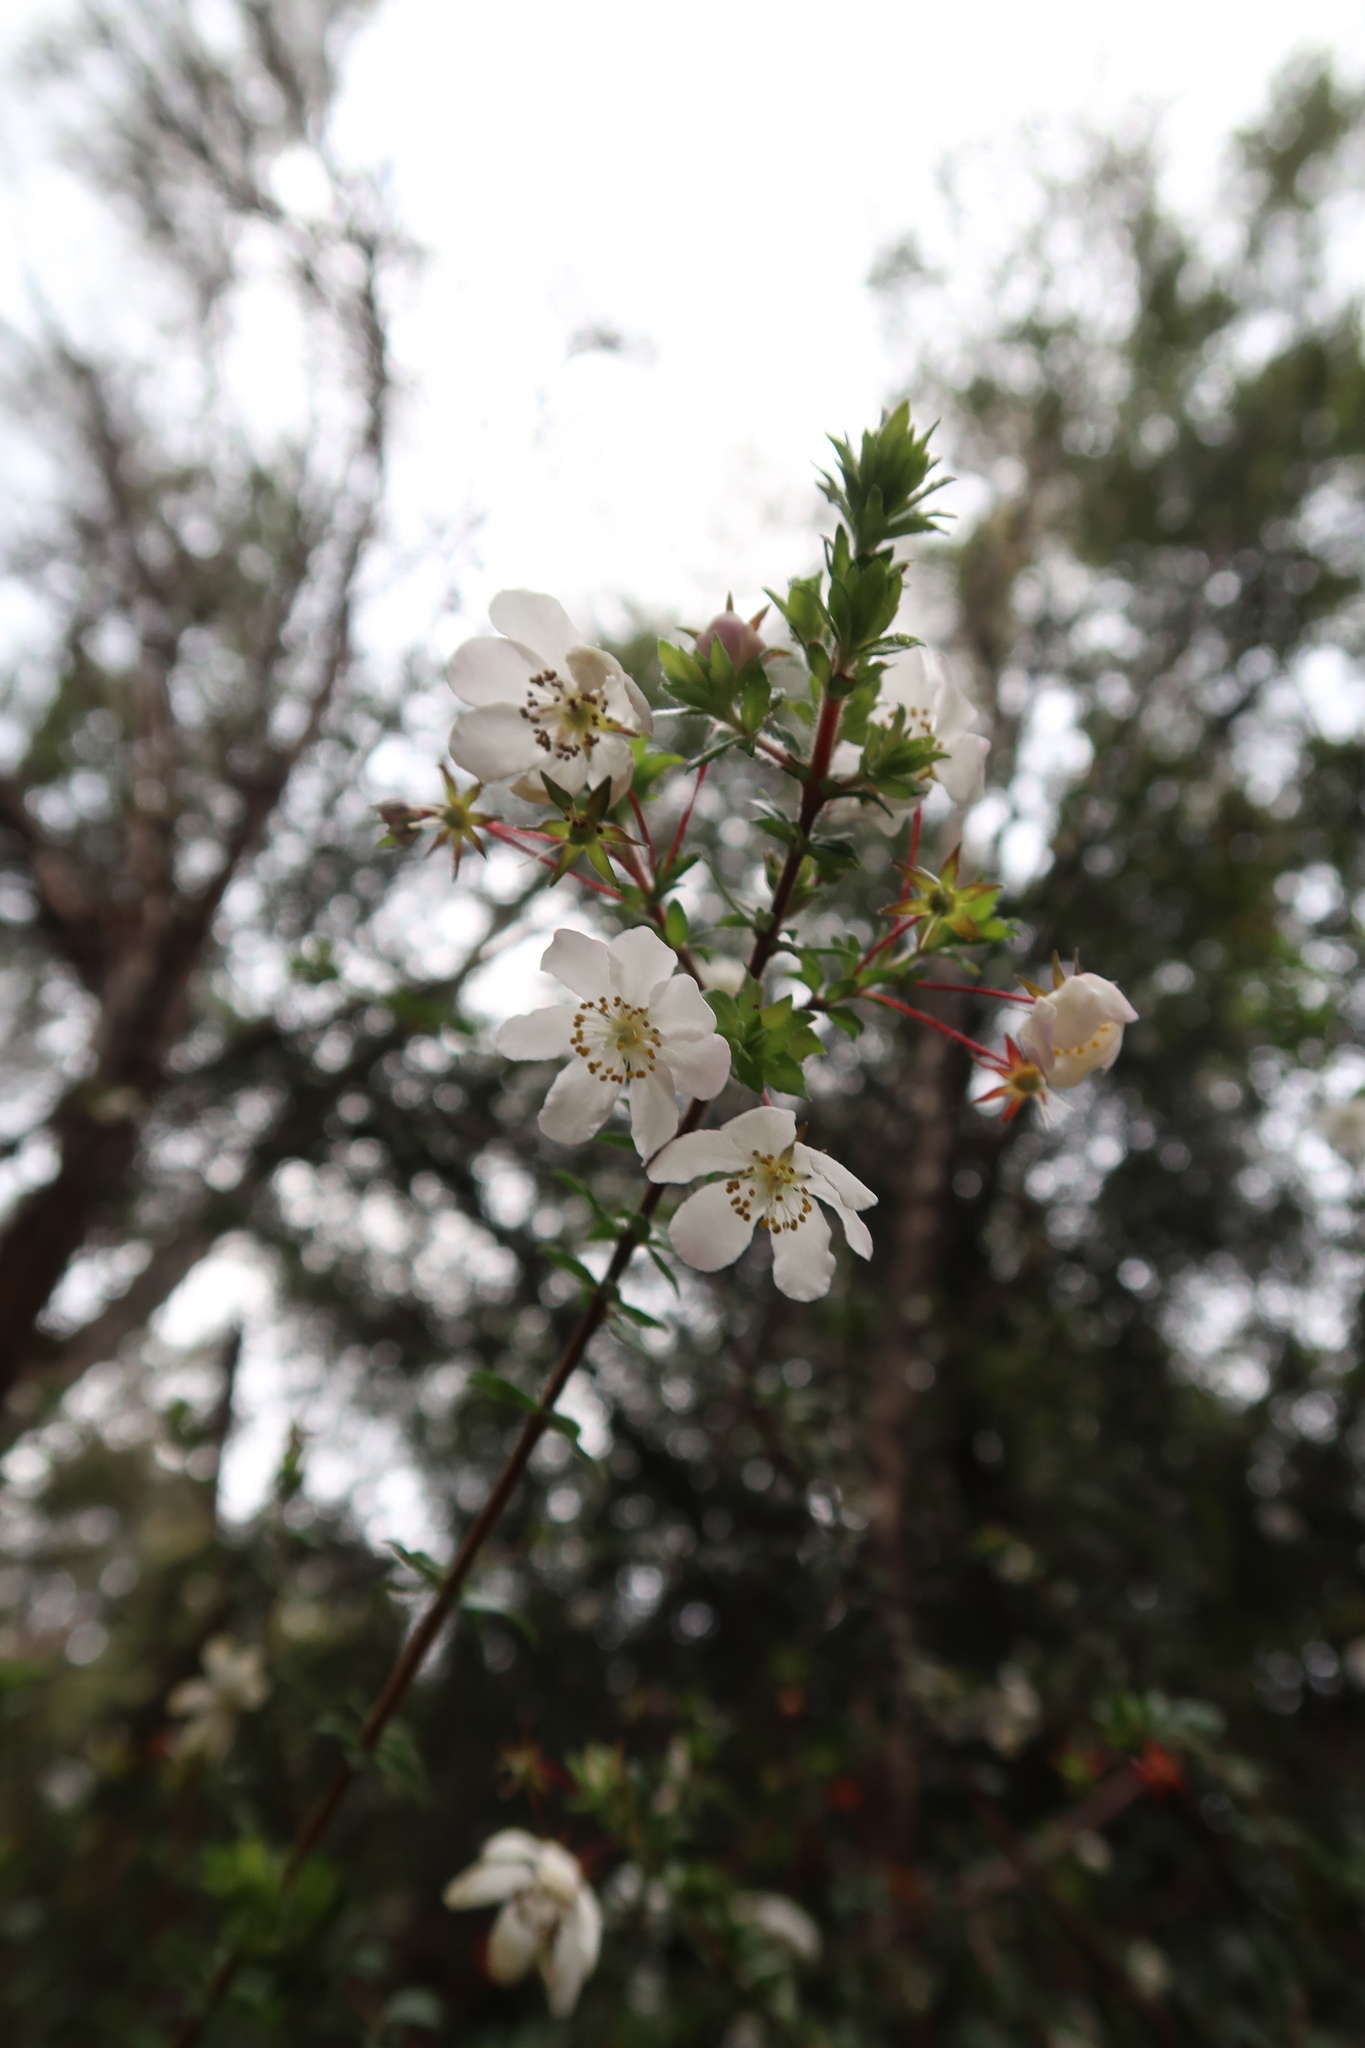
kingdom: Plantae
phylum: Tracheophyta
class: Magnoliopsida
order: Oxalidales
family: Cunoniaceae
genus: Bauera
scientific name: Bauera rubioides
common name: River-rose
